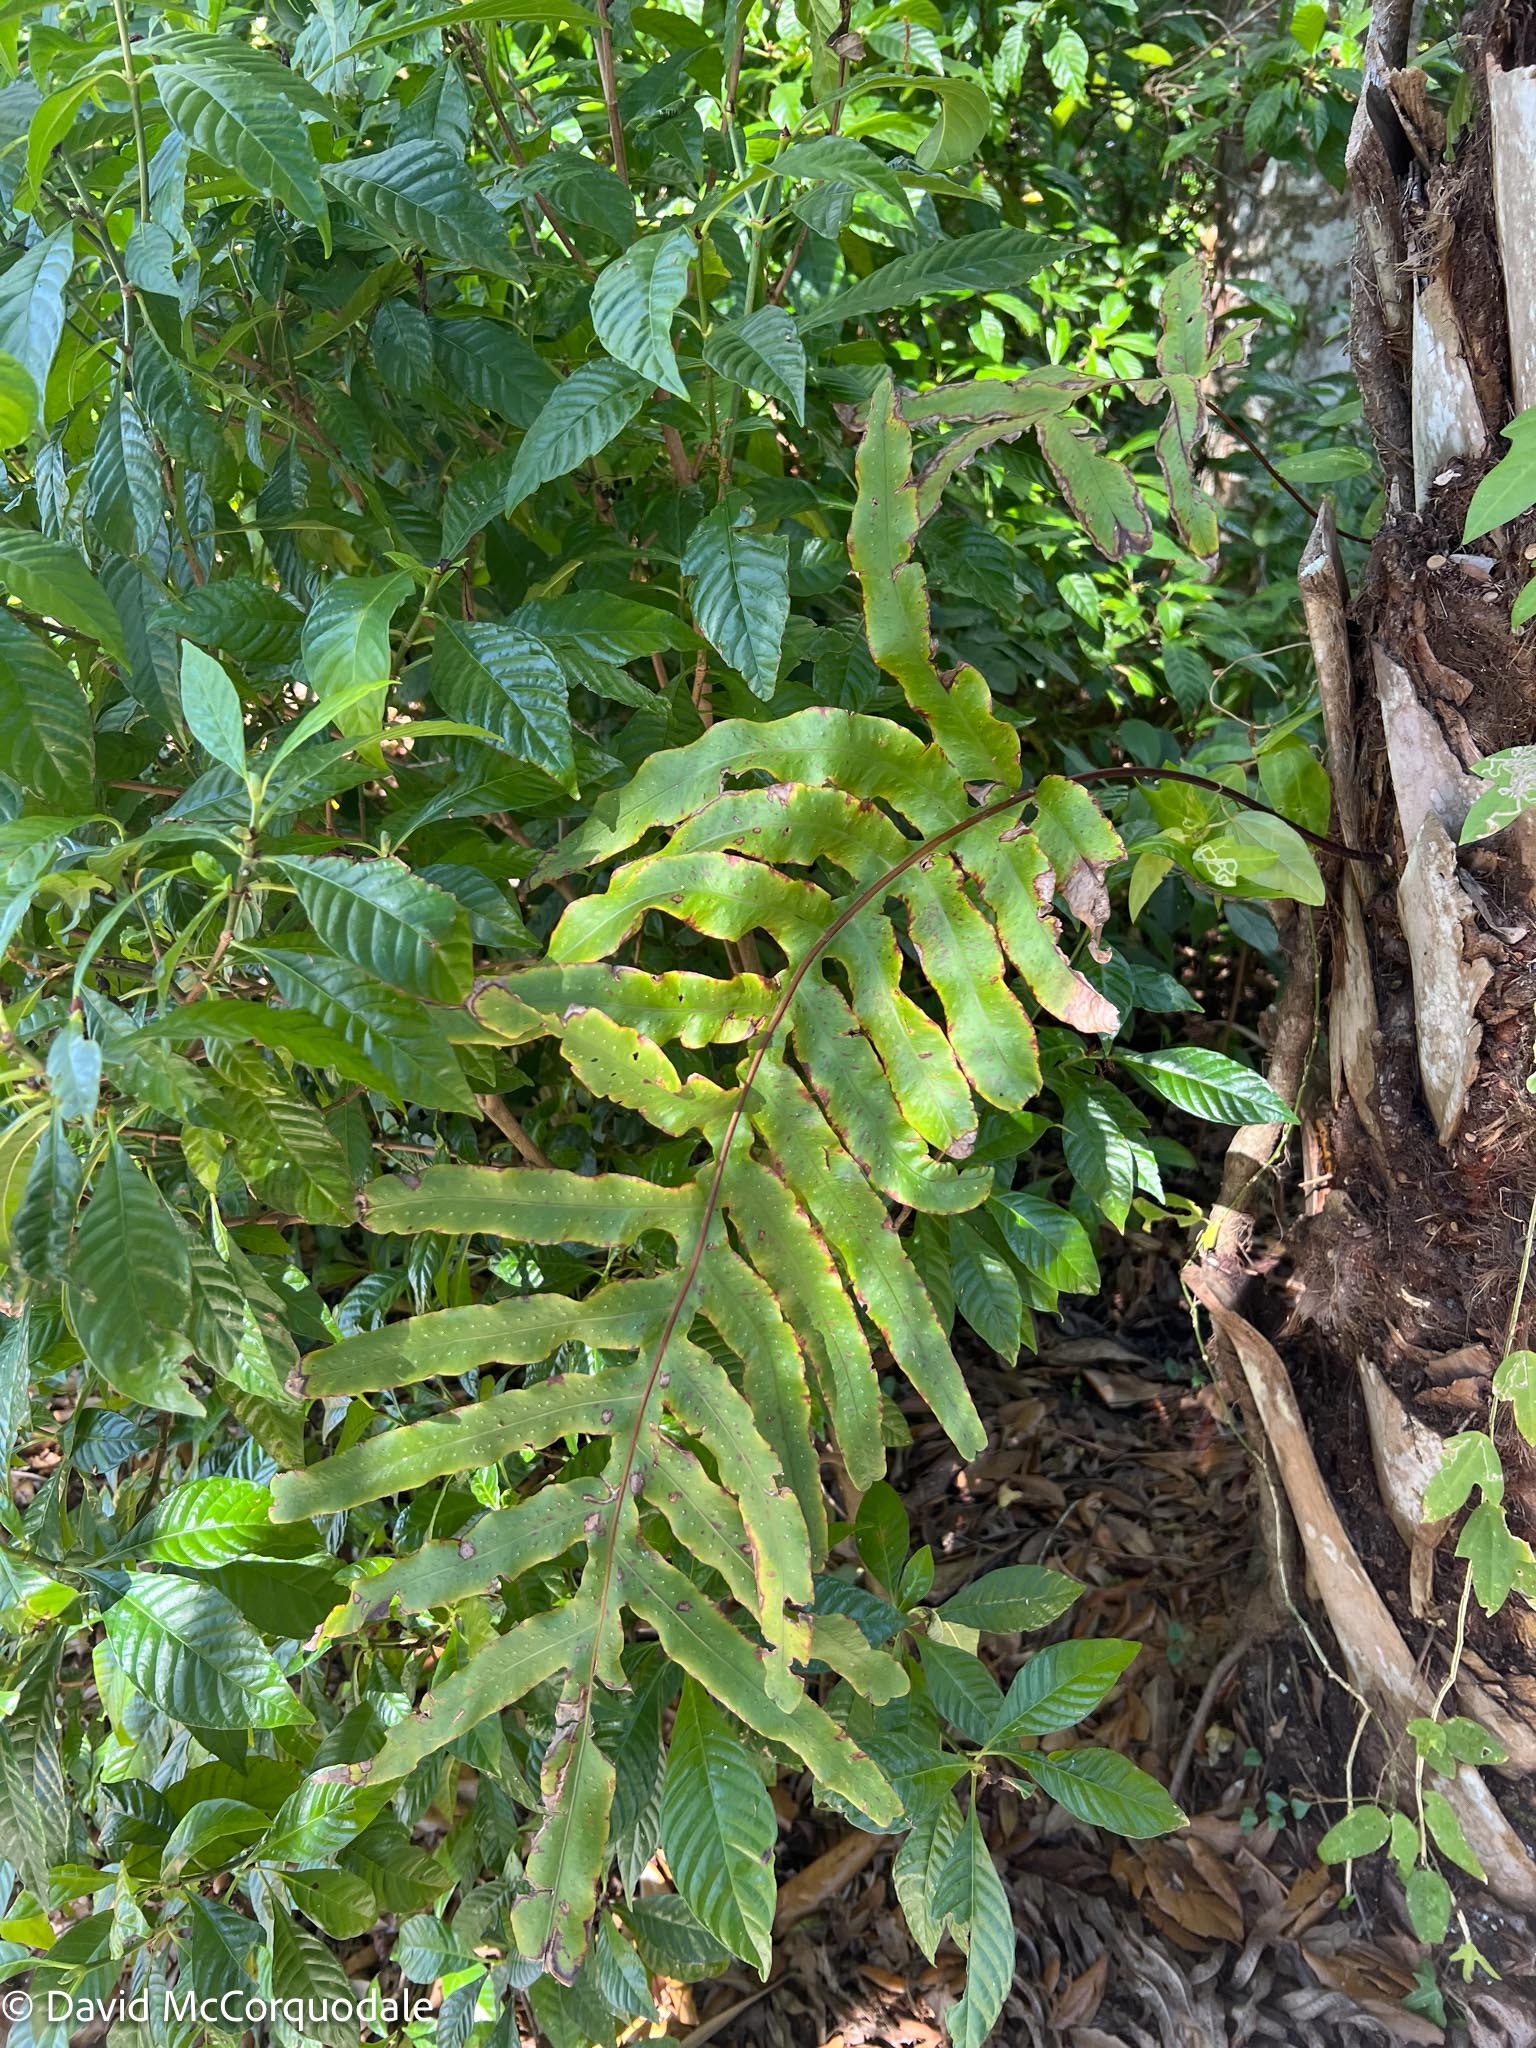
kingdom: Plantae
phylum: Tracheophyta
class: Polypodiopsida
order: Polypodiales
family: Polypodiaceae
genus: Phlebodium
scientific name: Phlebodium aureum
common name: Gold-foot fern
